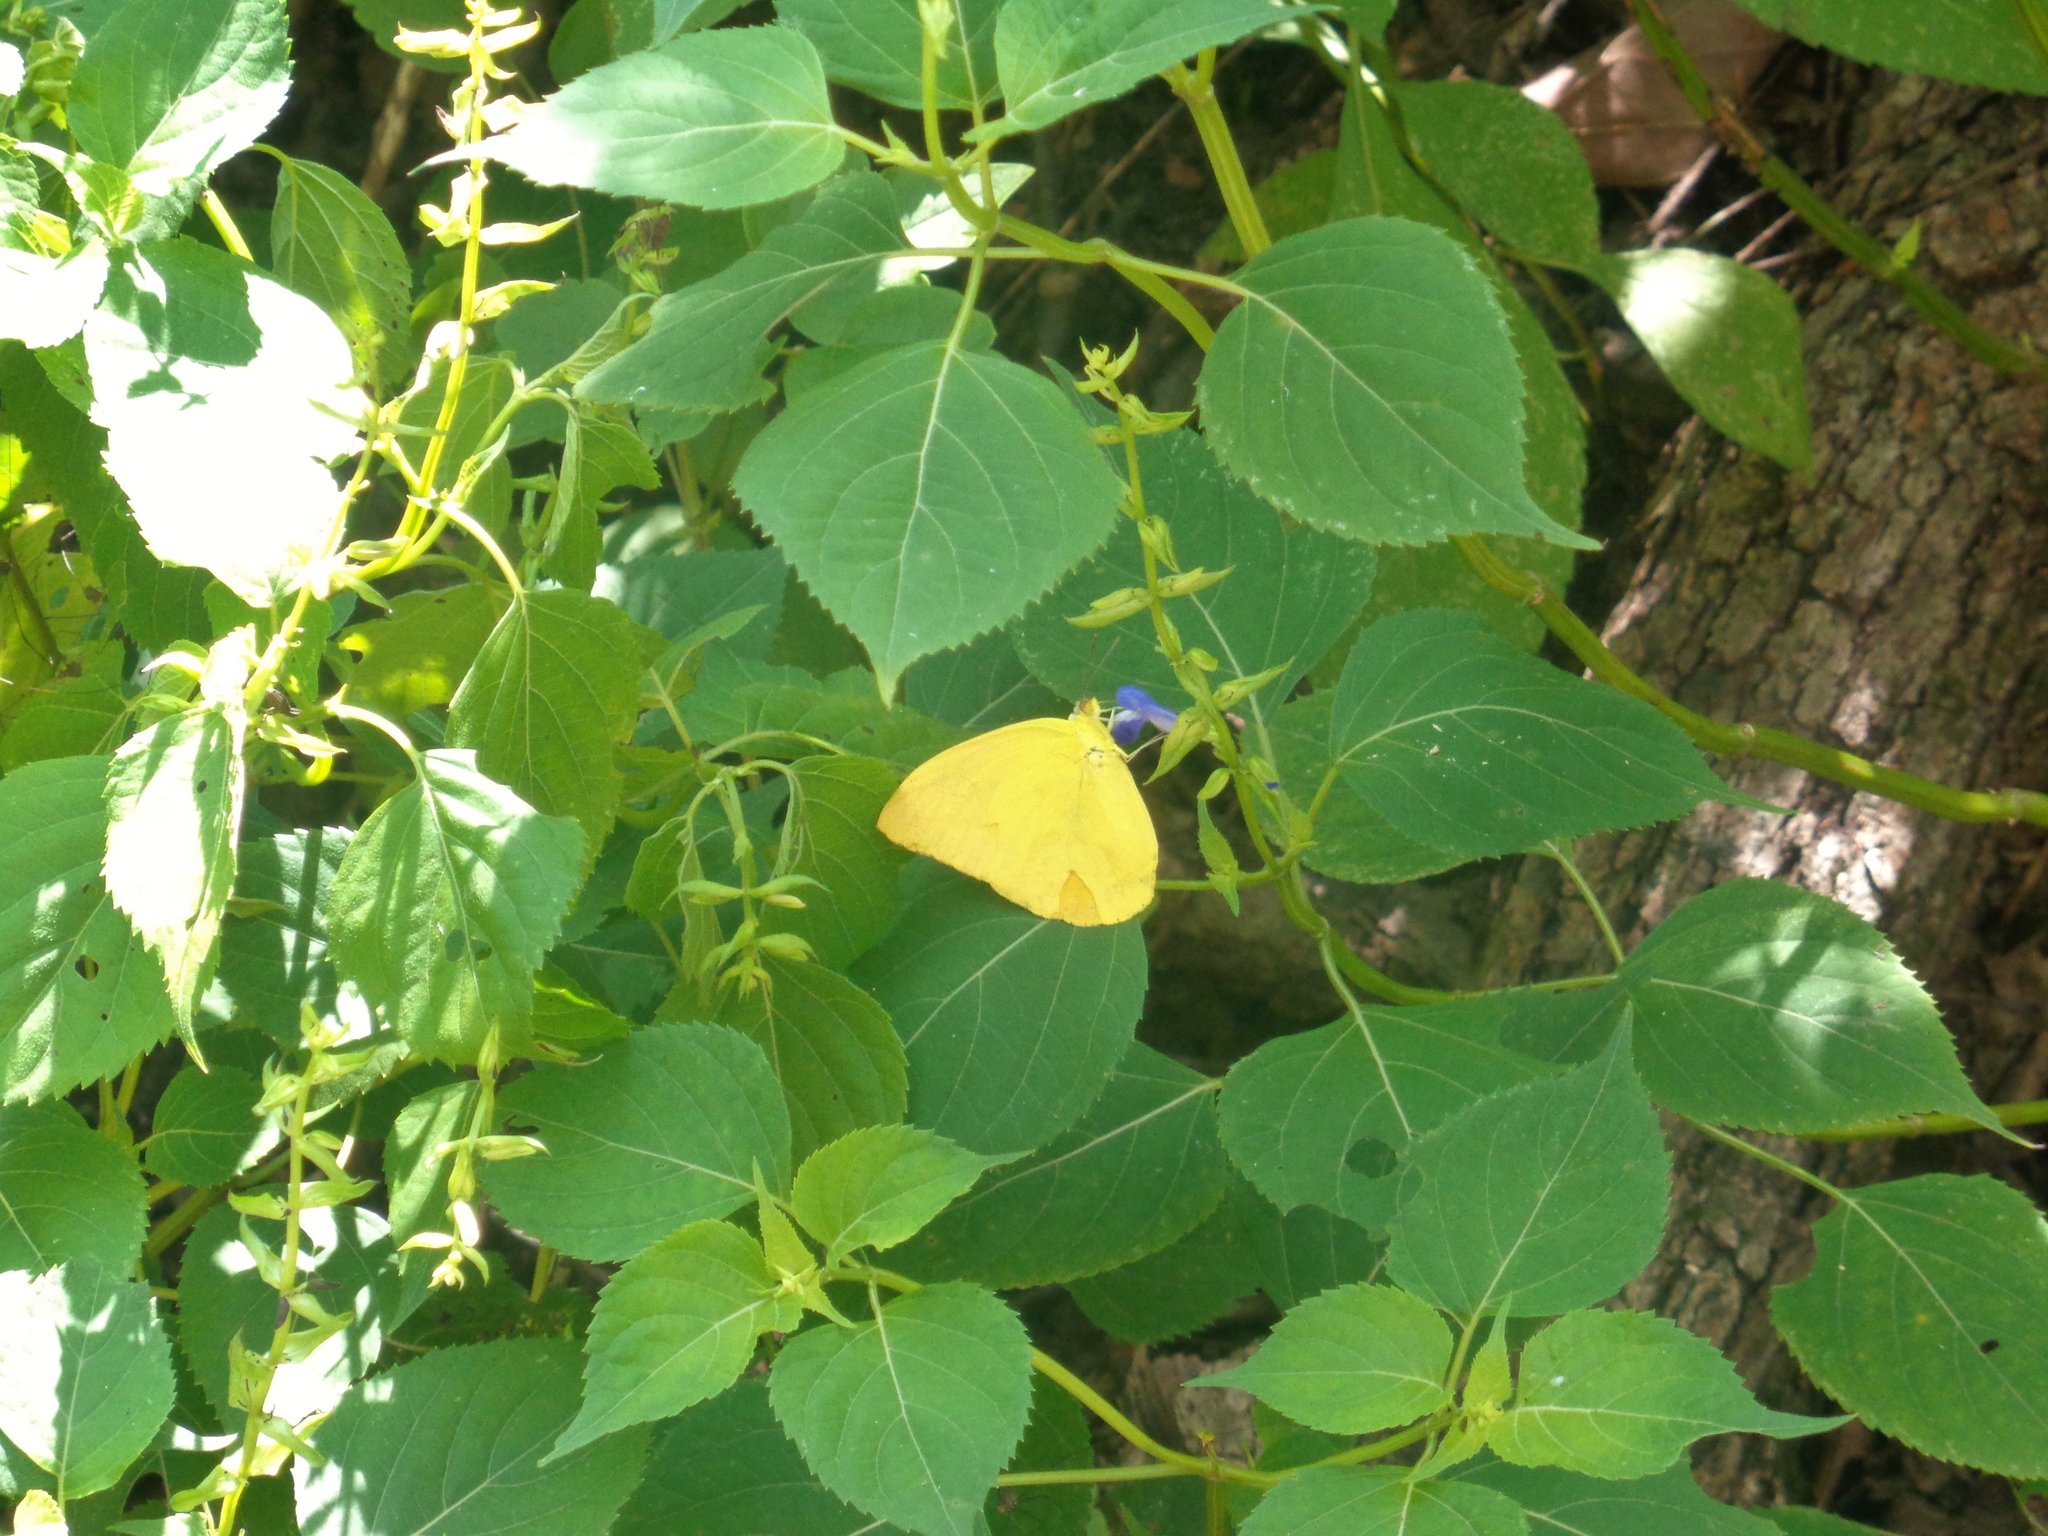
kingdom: Animalia
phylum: Arthropoda
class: Insecta
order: Lepidoptera
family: Pieridae
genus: Phoebis
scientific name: Phoebis agarithe
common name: Large orange sulphur
